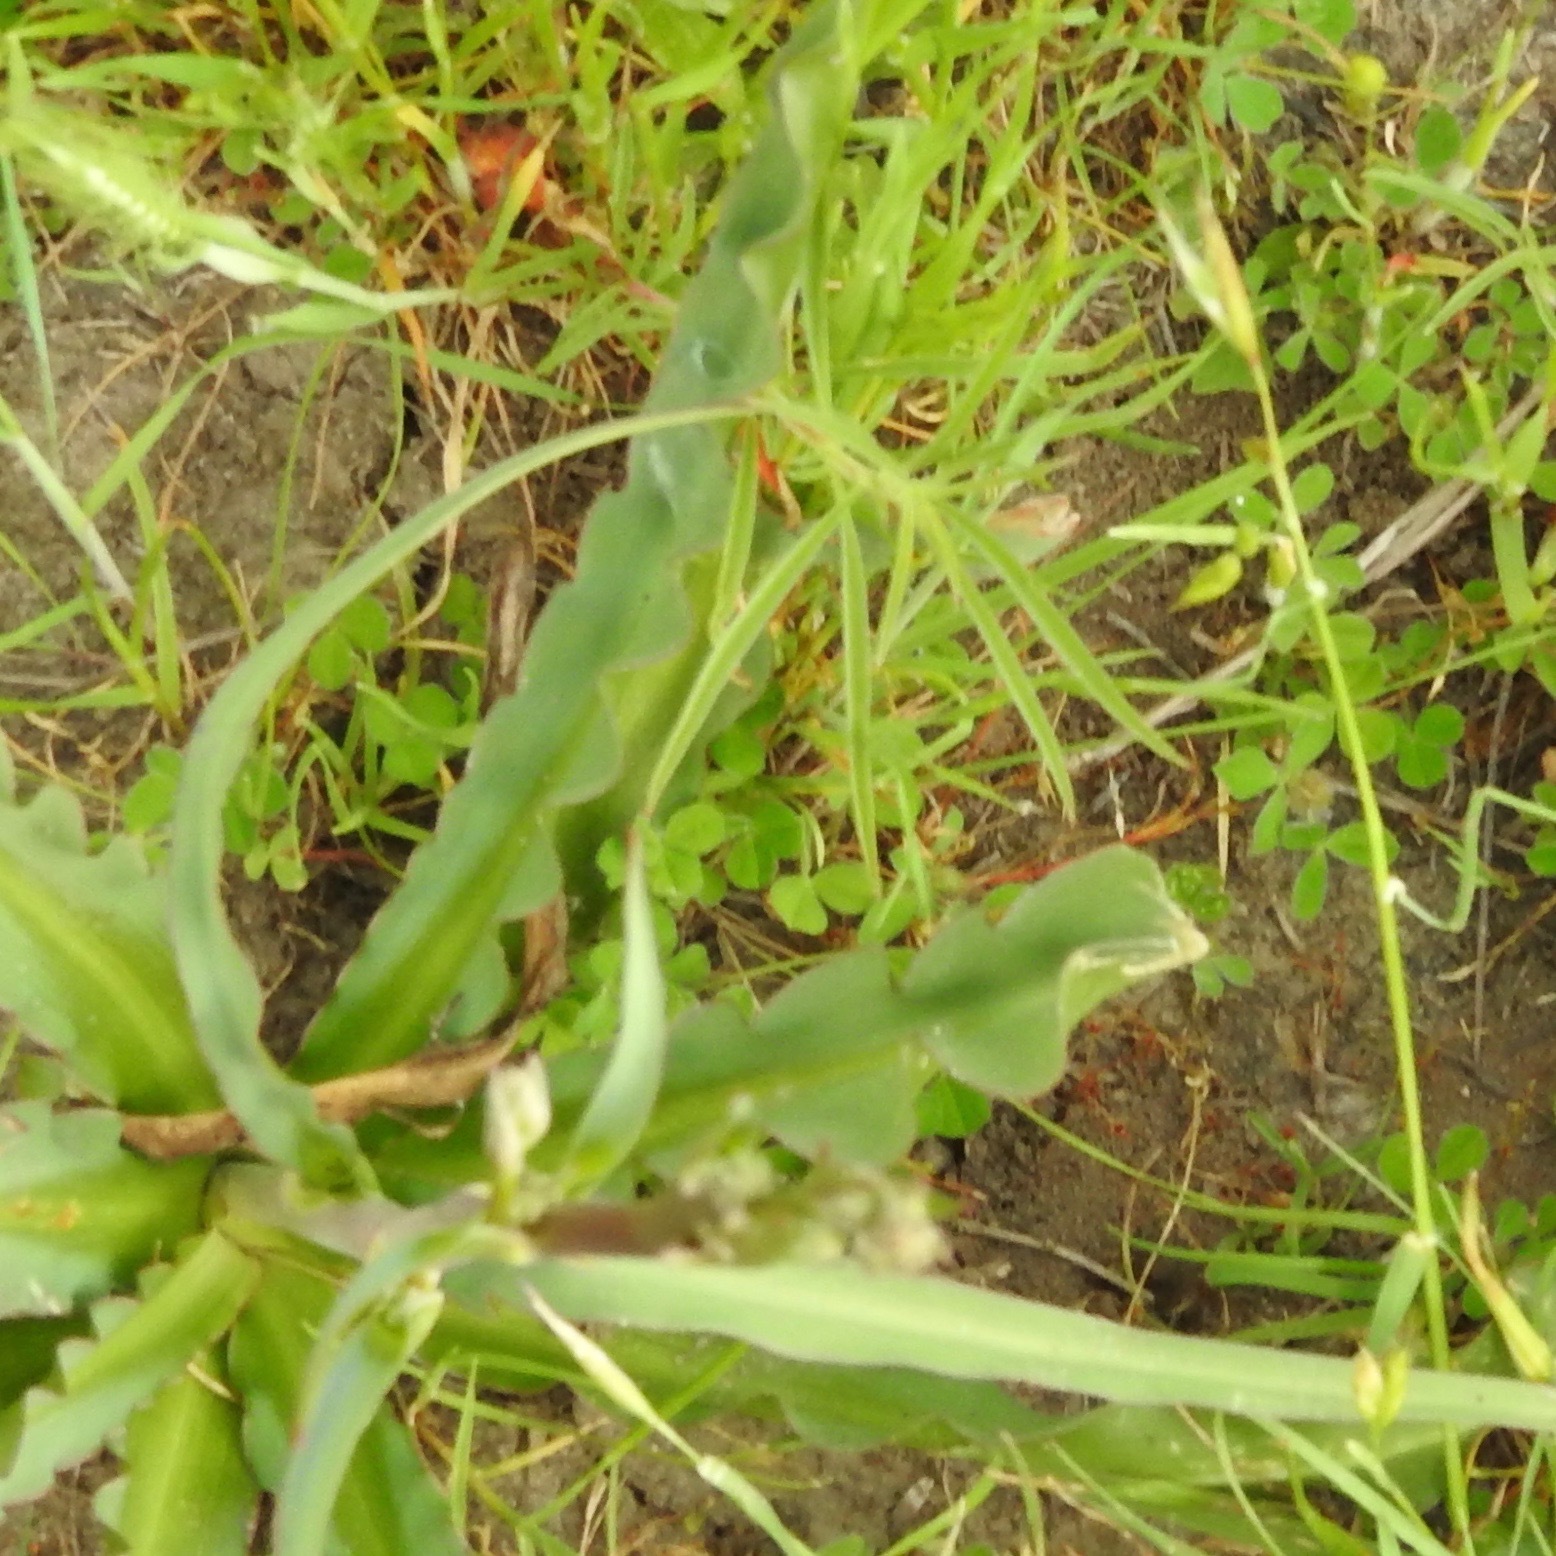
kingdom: Plantae
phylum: Tracheophyta
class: Liliopsida
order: Asparagales
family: Asparagaceae
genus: Chlorogalum
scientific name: Chlorogalum pomeridianum
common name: Amole
